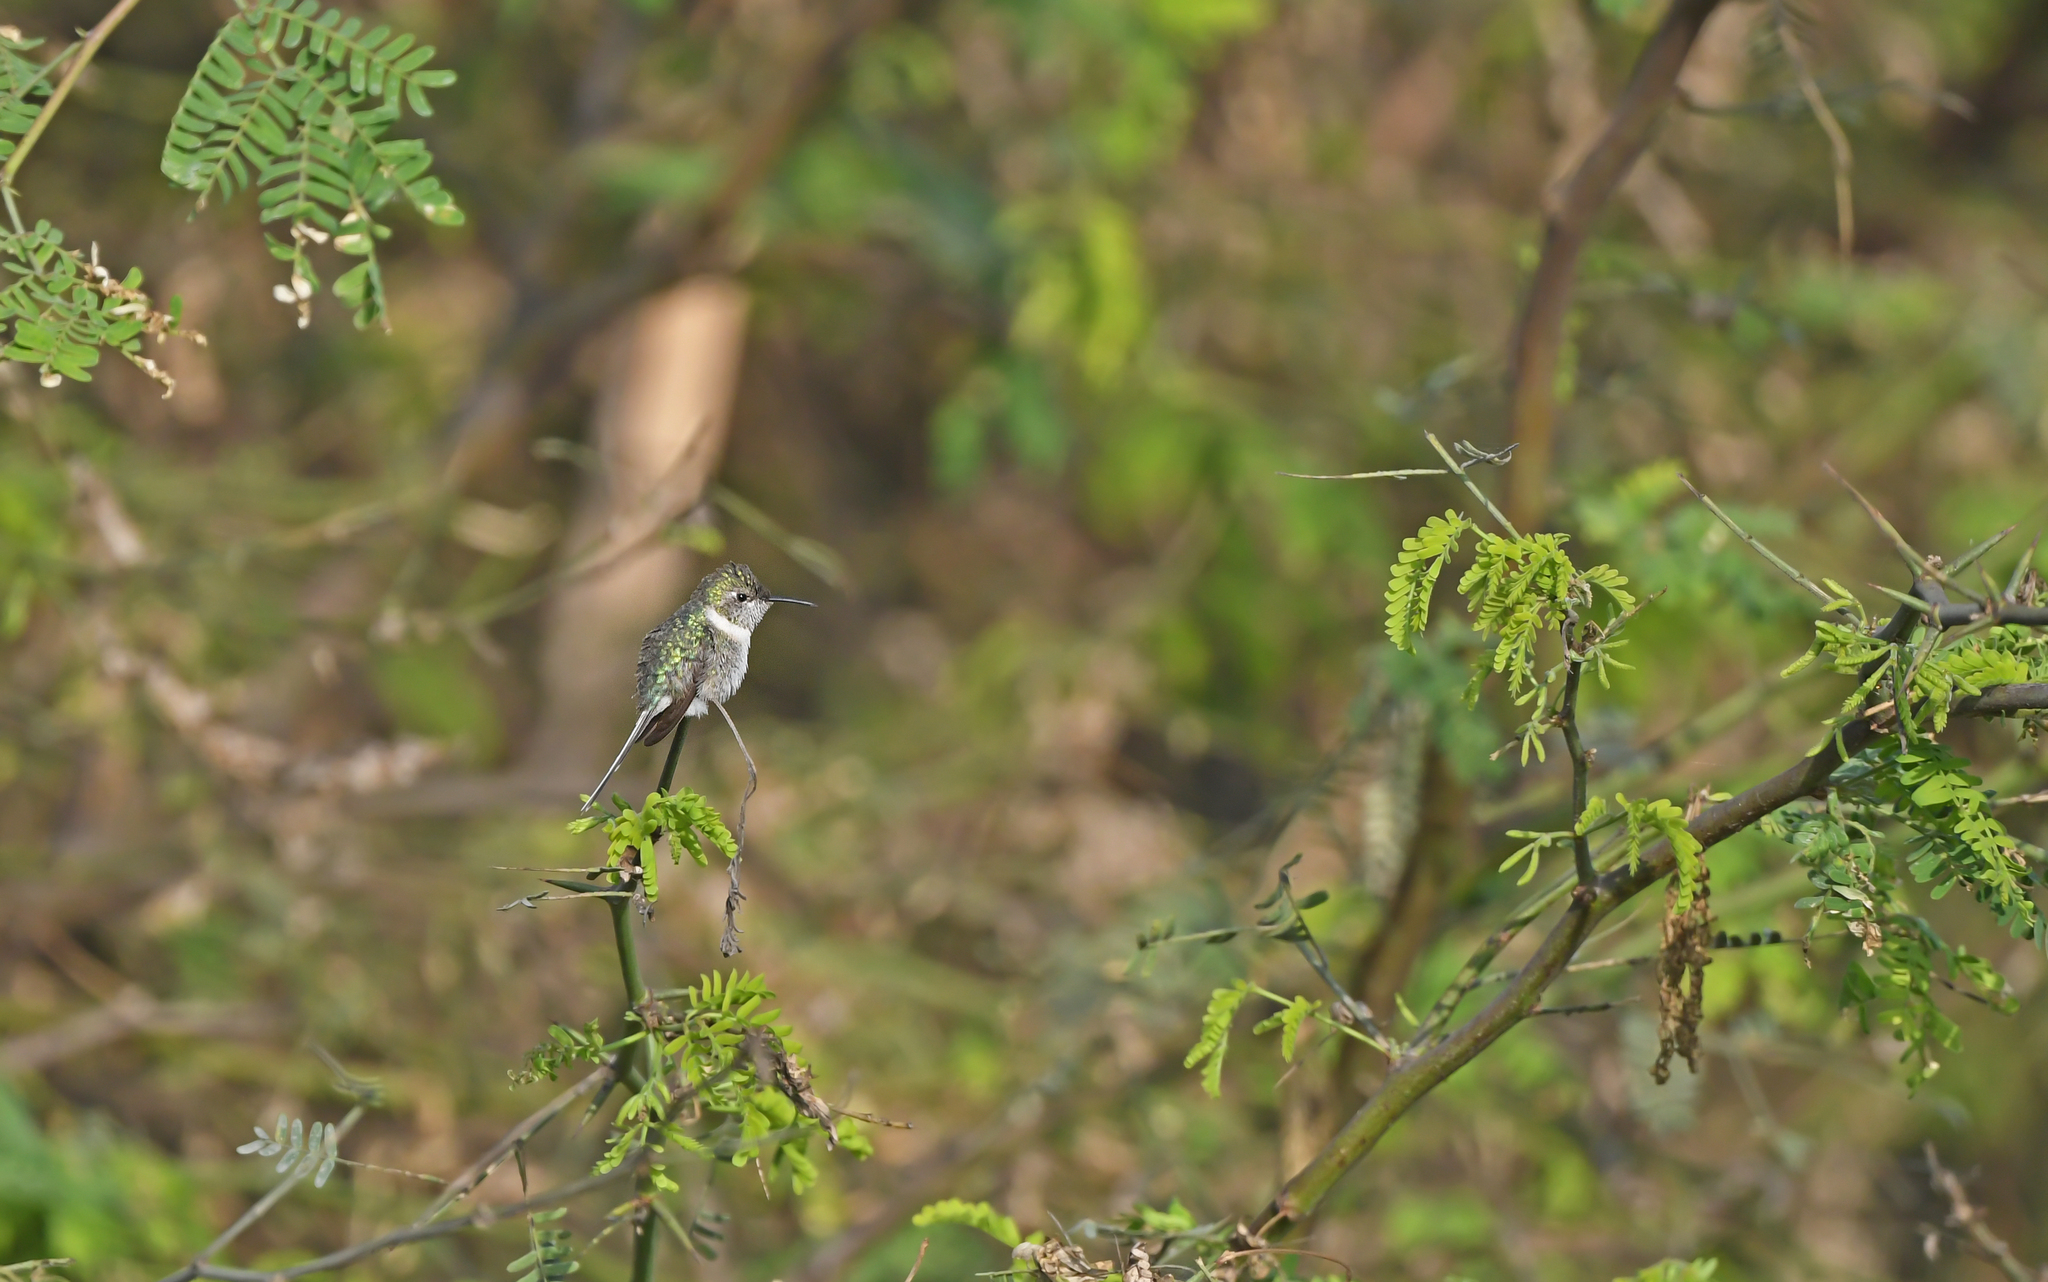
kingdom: Animalia
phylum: Chordata
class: Aves
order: Apodiformes
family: Trochilidae
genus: Thaumastura
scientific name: Thaumastura cora
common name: Peruvian sheartail
